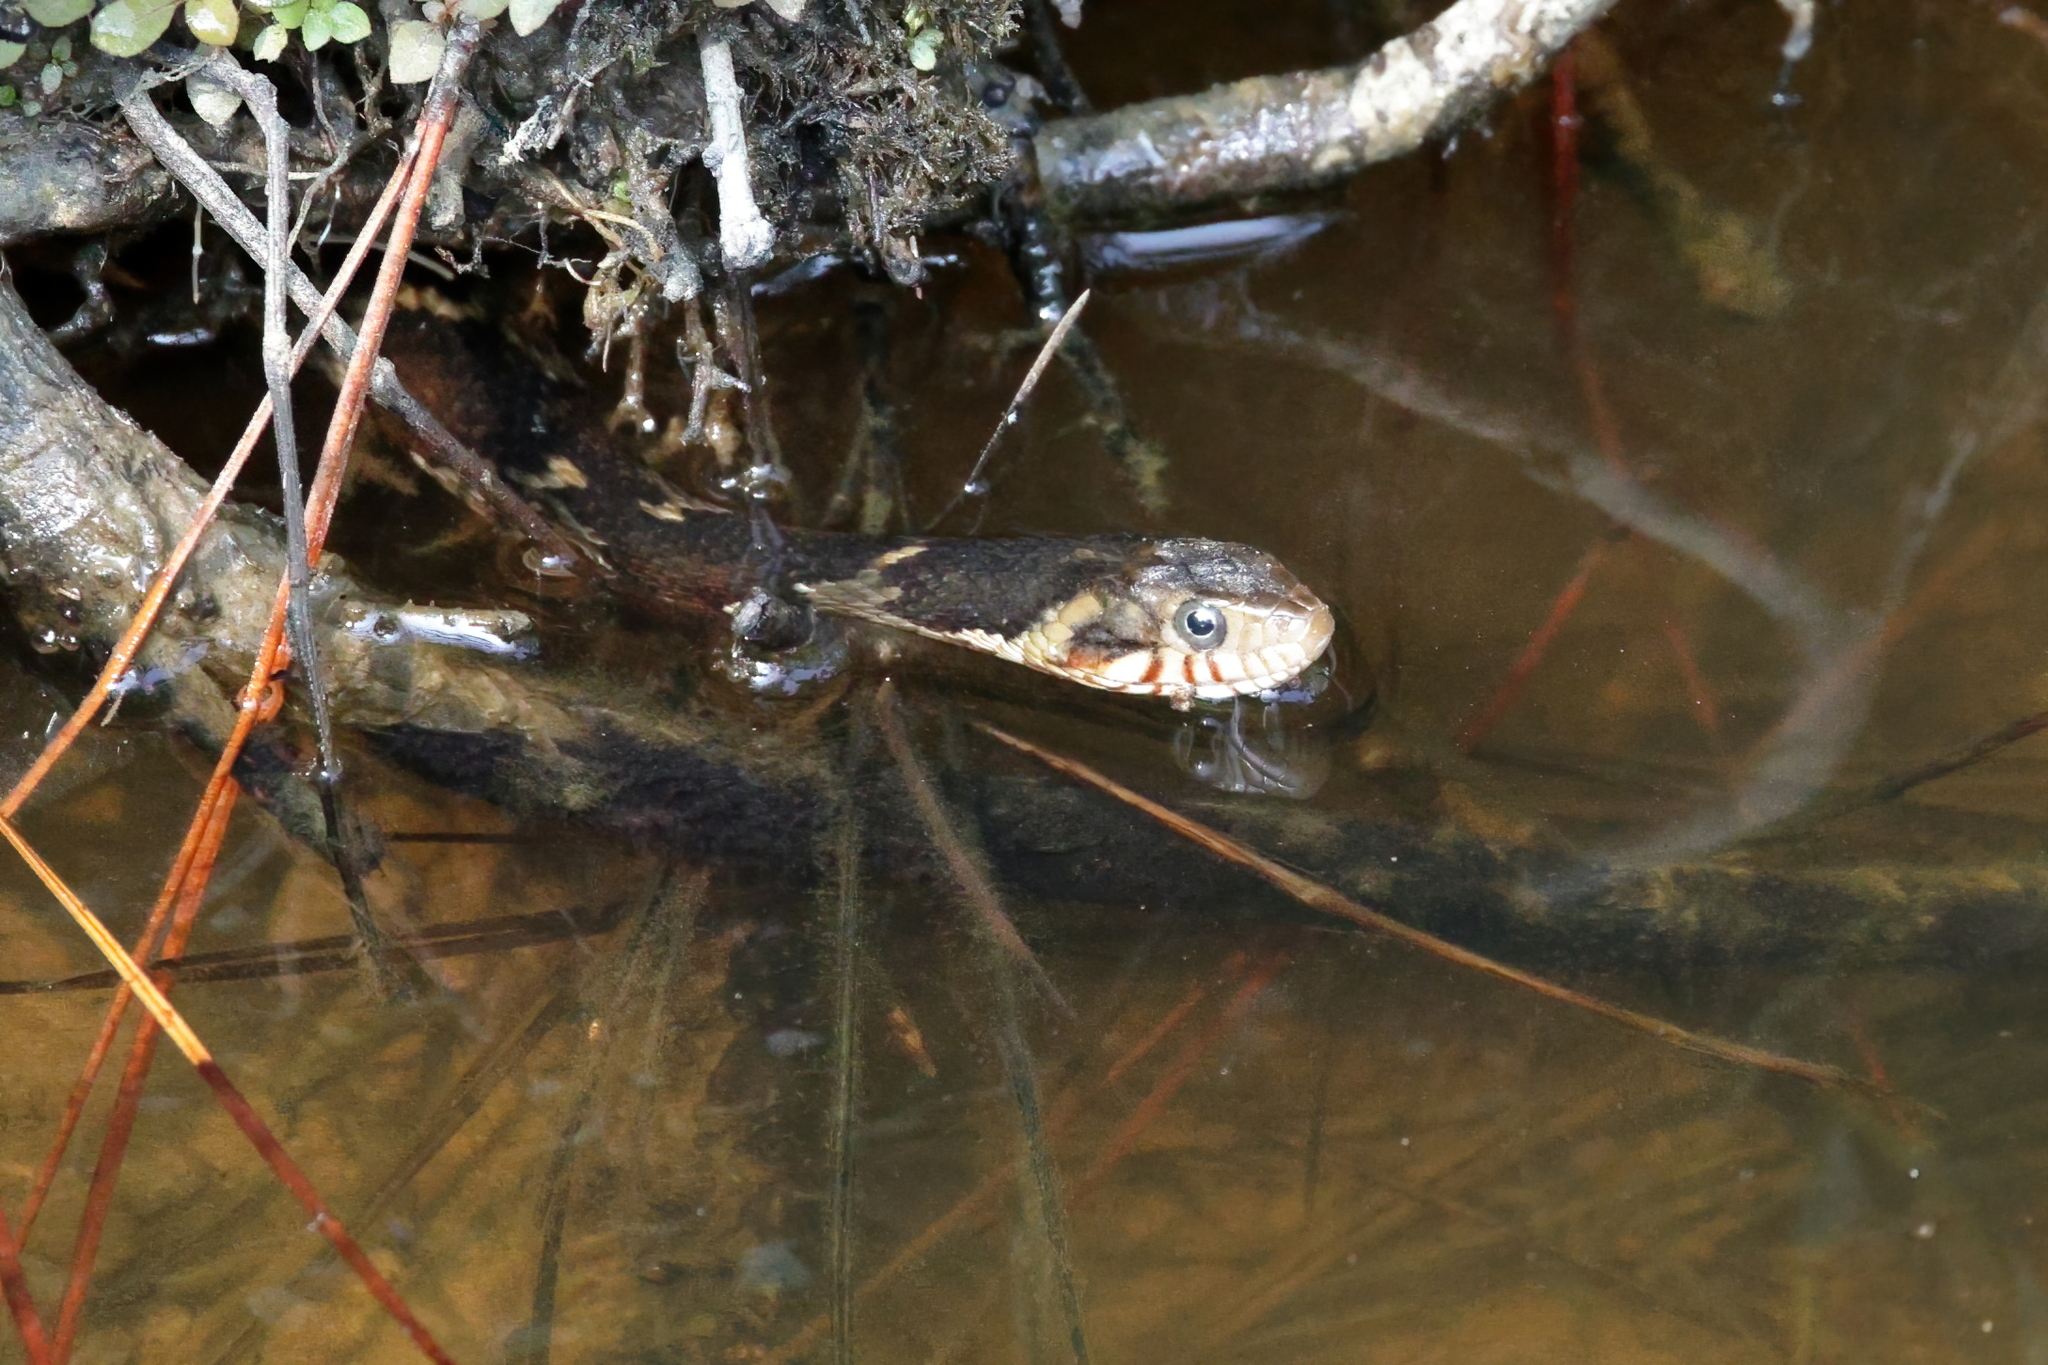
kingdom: Animalia
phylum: Chordata
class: Squamata
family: Colubridae
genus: Nerodia
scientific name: Nerodia fasciata
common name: Southern water snake
